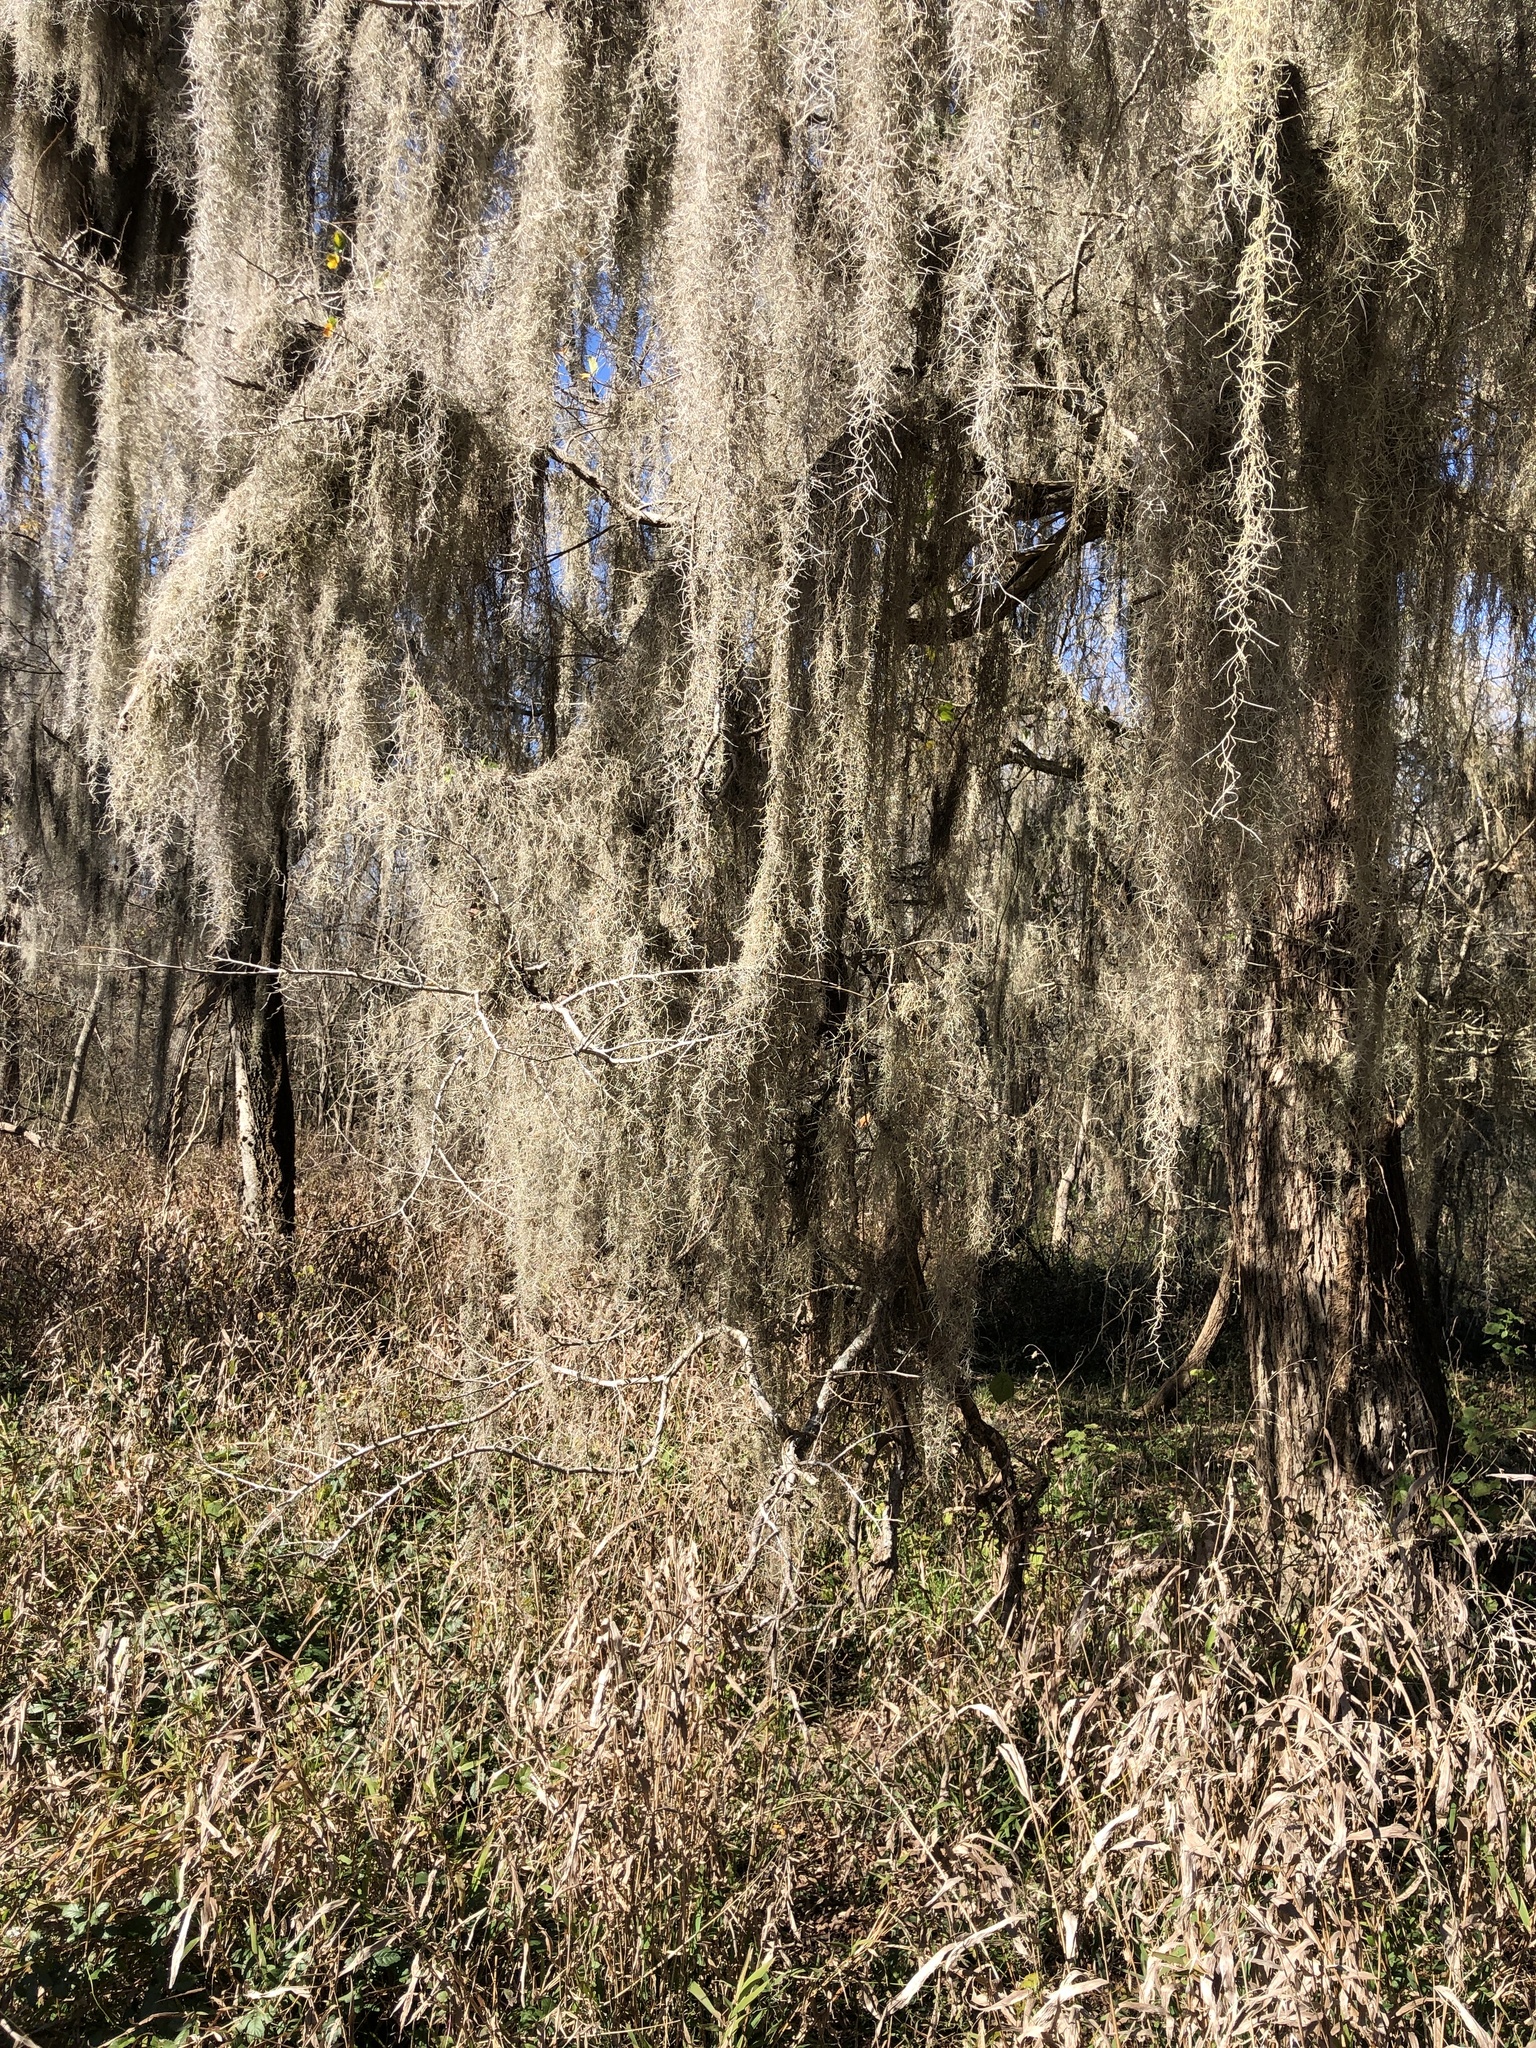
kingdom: Plantae
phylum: Tracheophyta
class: Liliopsida
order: Poales
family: Bromeliaceae
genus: Tillandsia
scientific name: Tillandsia usneoides
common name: Spanish moss
